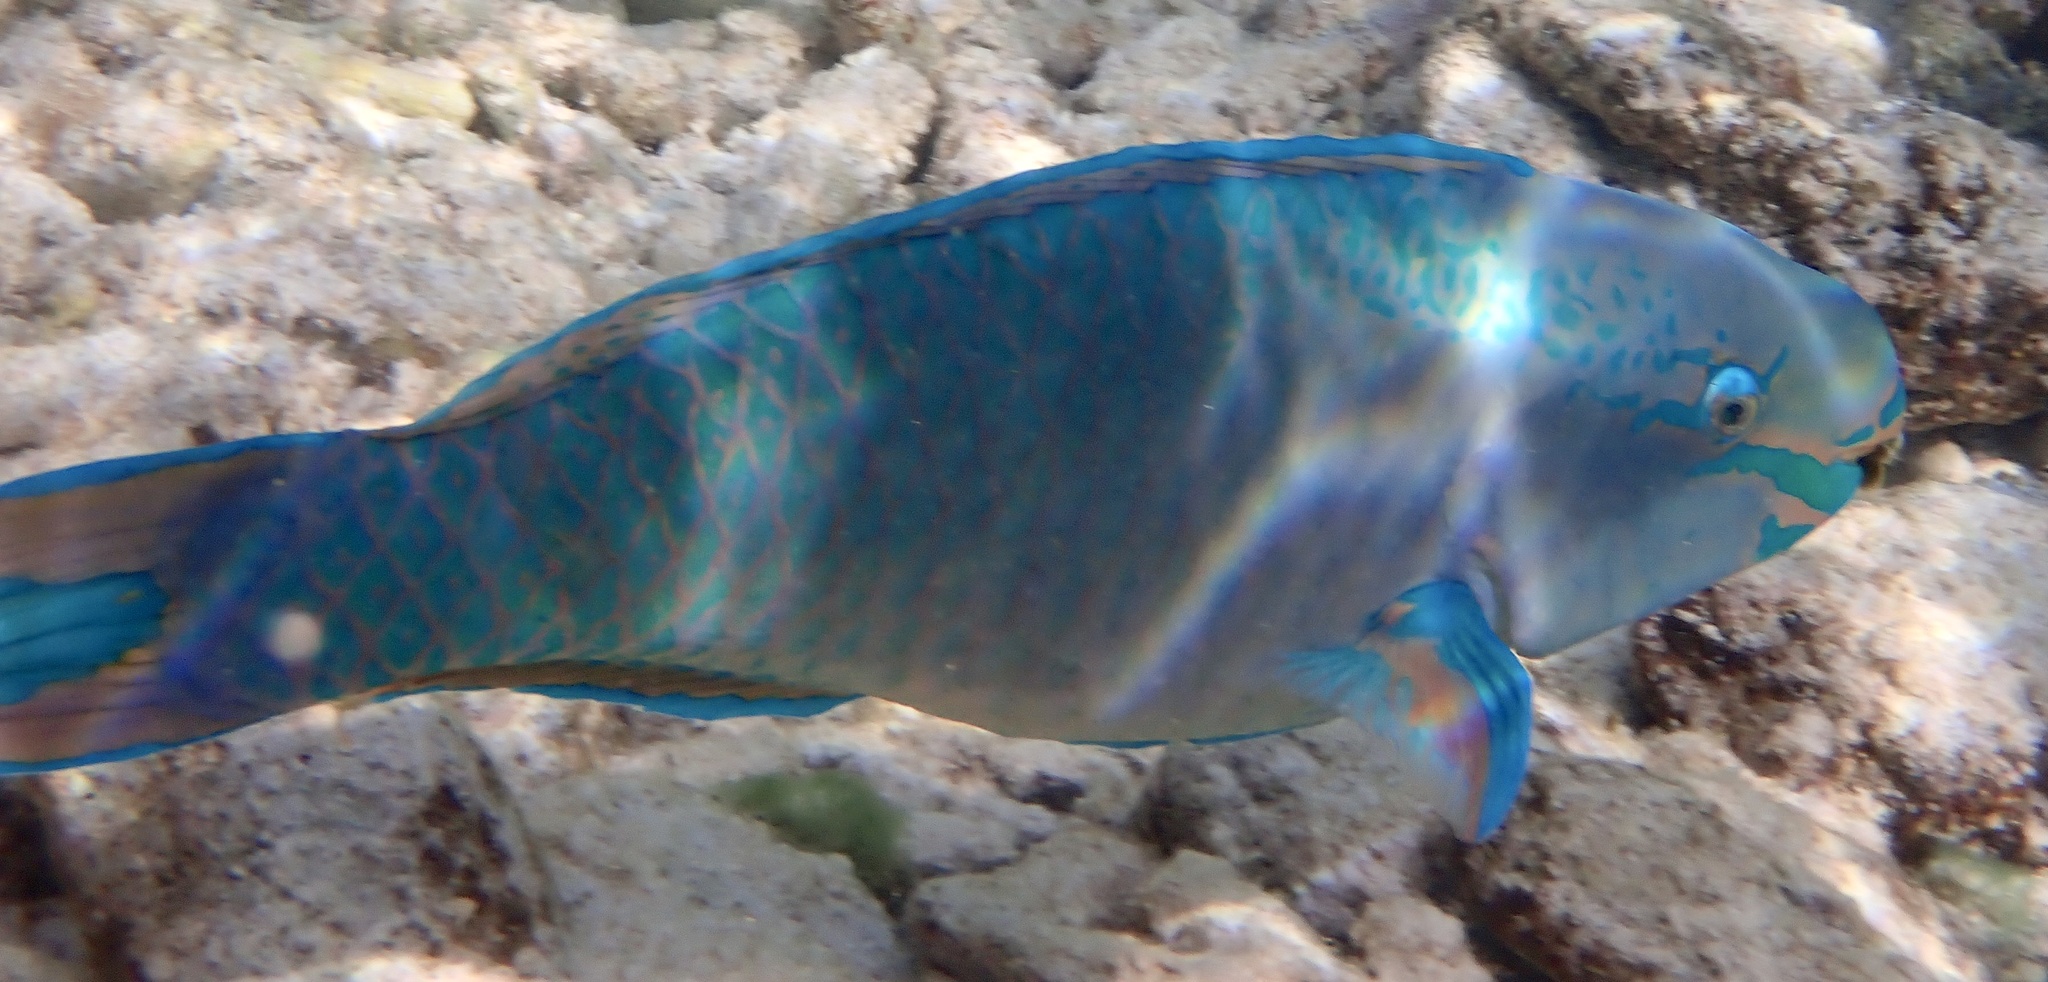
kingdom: Animalia
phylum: Chordata
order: Perciformes
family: Scaridae
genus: Scarus
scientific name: Scarus vetula
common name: Queen parrotfish
